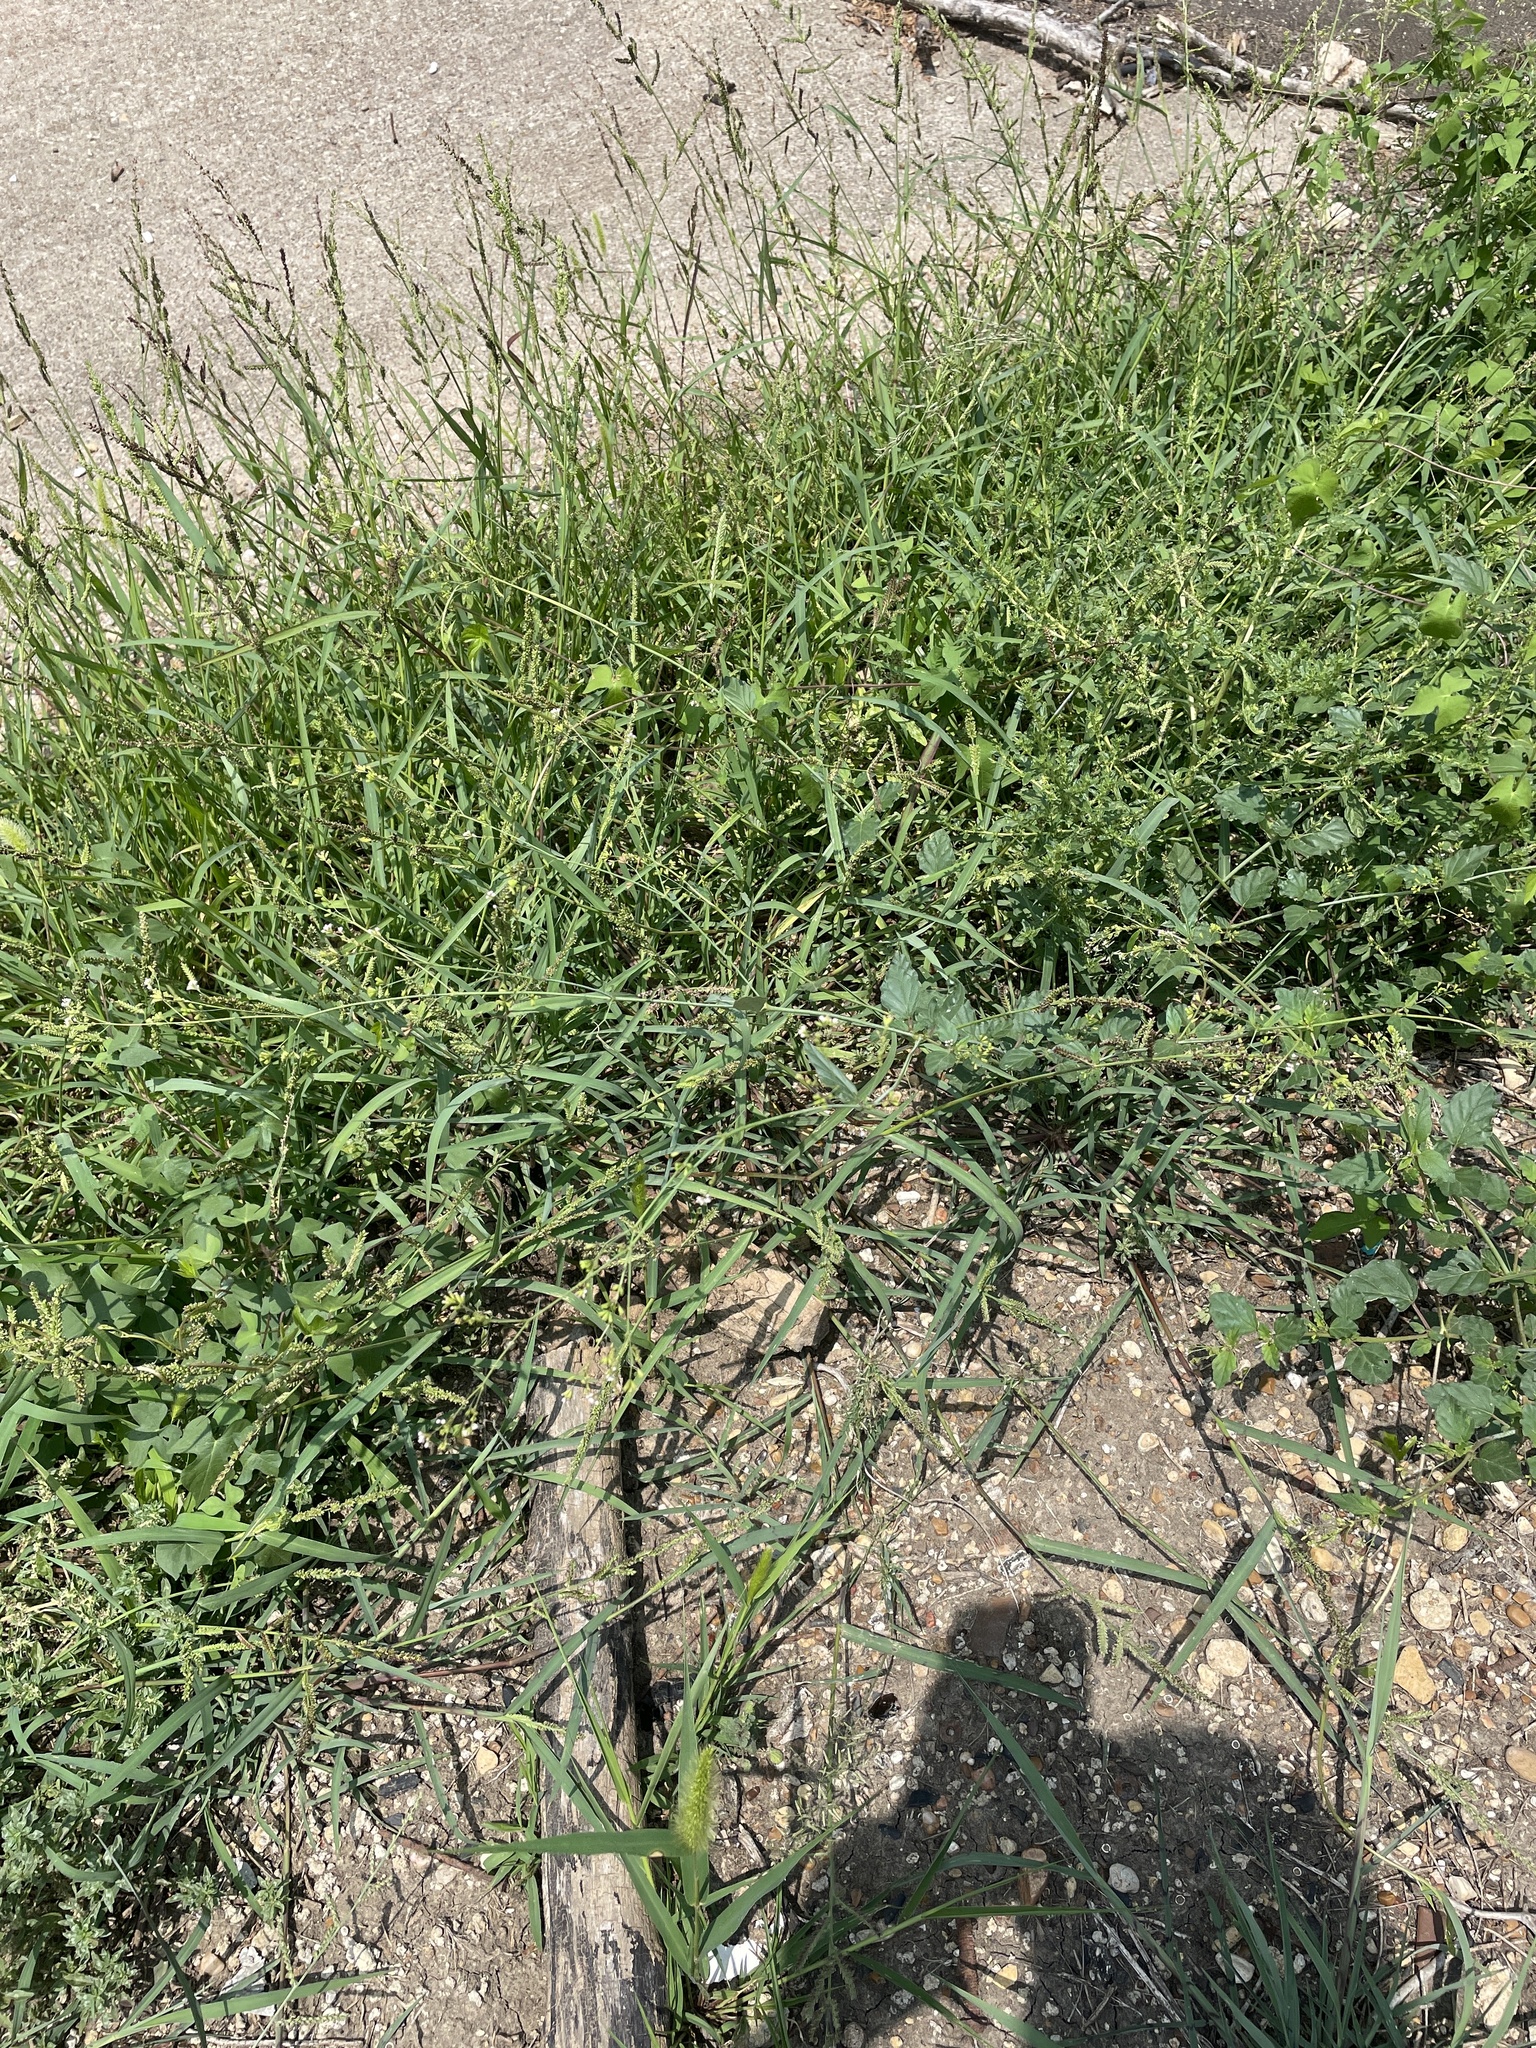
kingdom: Plantae
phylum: Tracheophyta
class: Magnoliopsida
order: Caryophyllales
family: Nyctaginaceae
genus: Boerhavia
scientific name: Boerhavia erecta
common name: Erect spiderling
